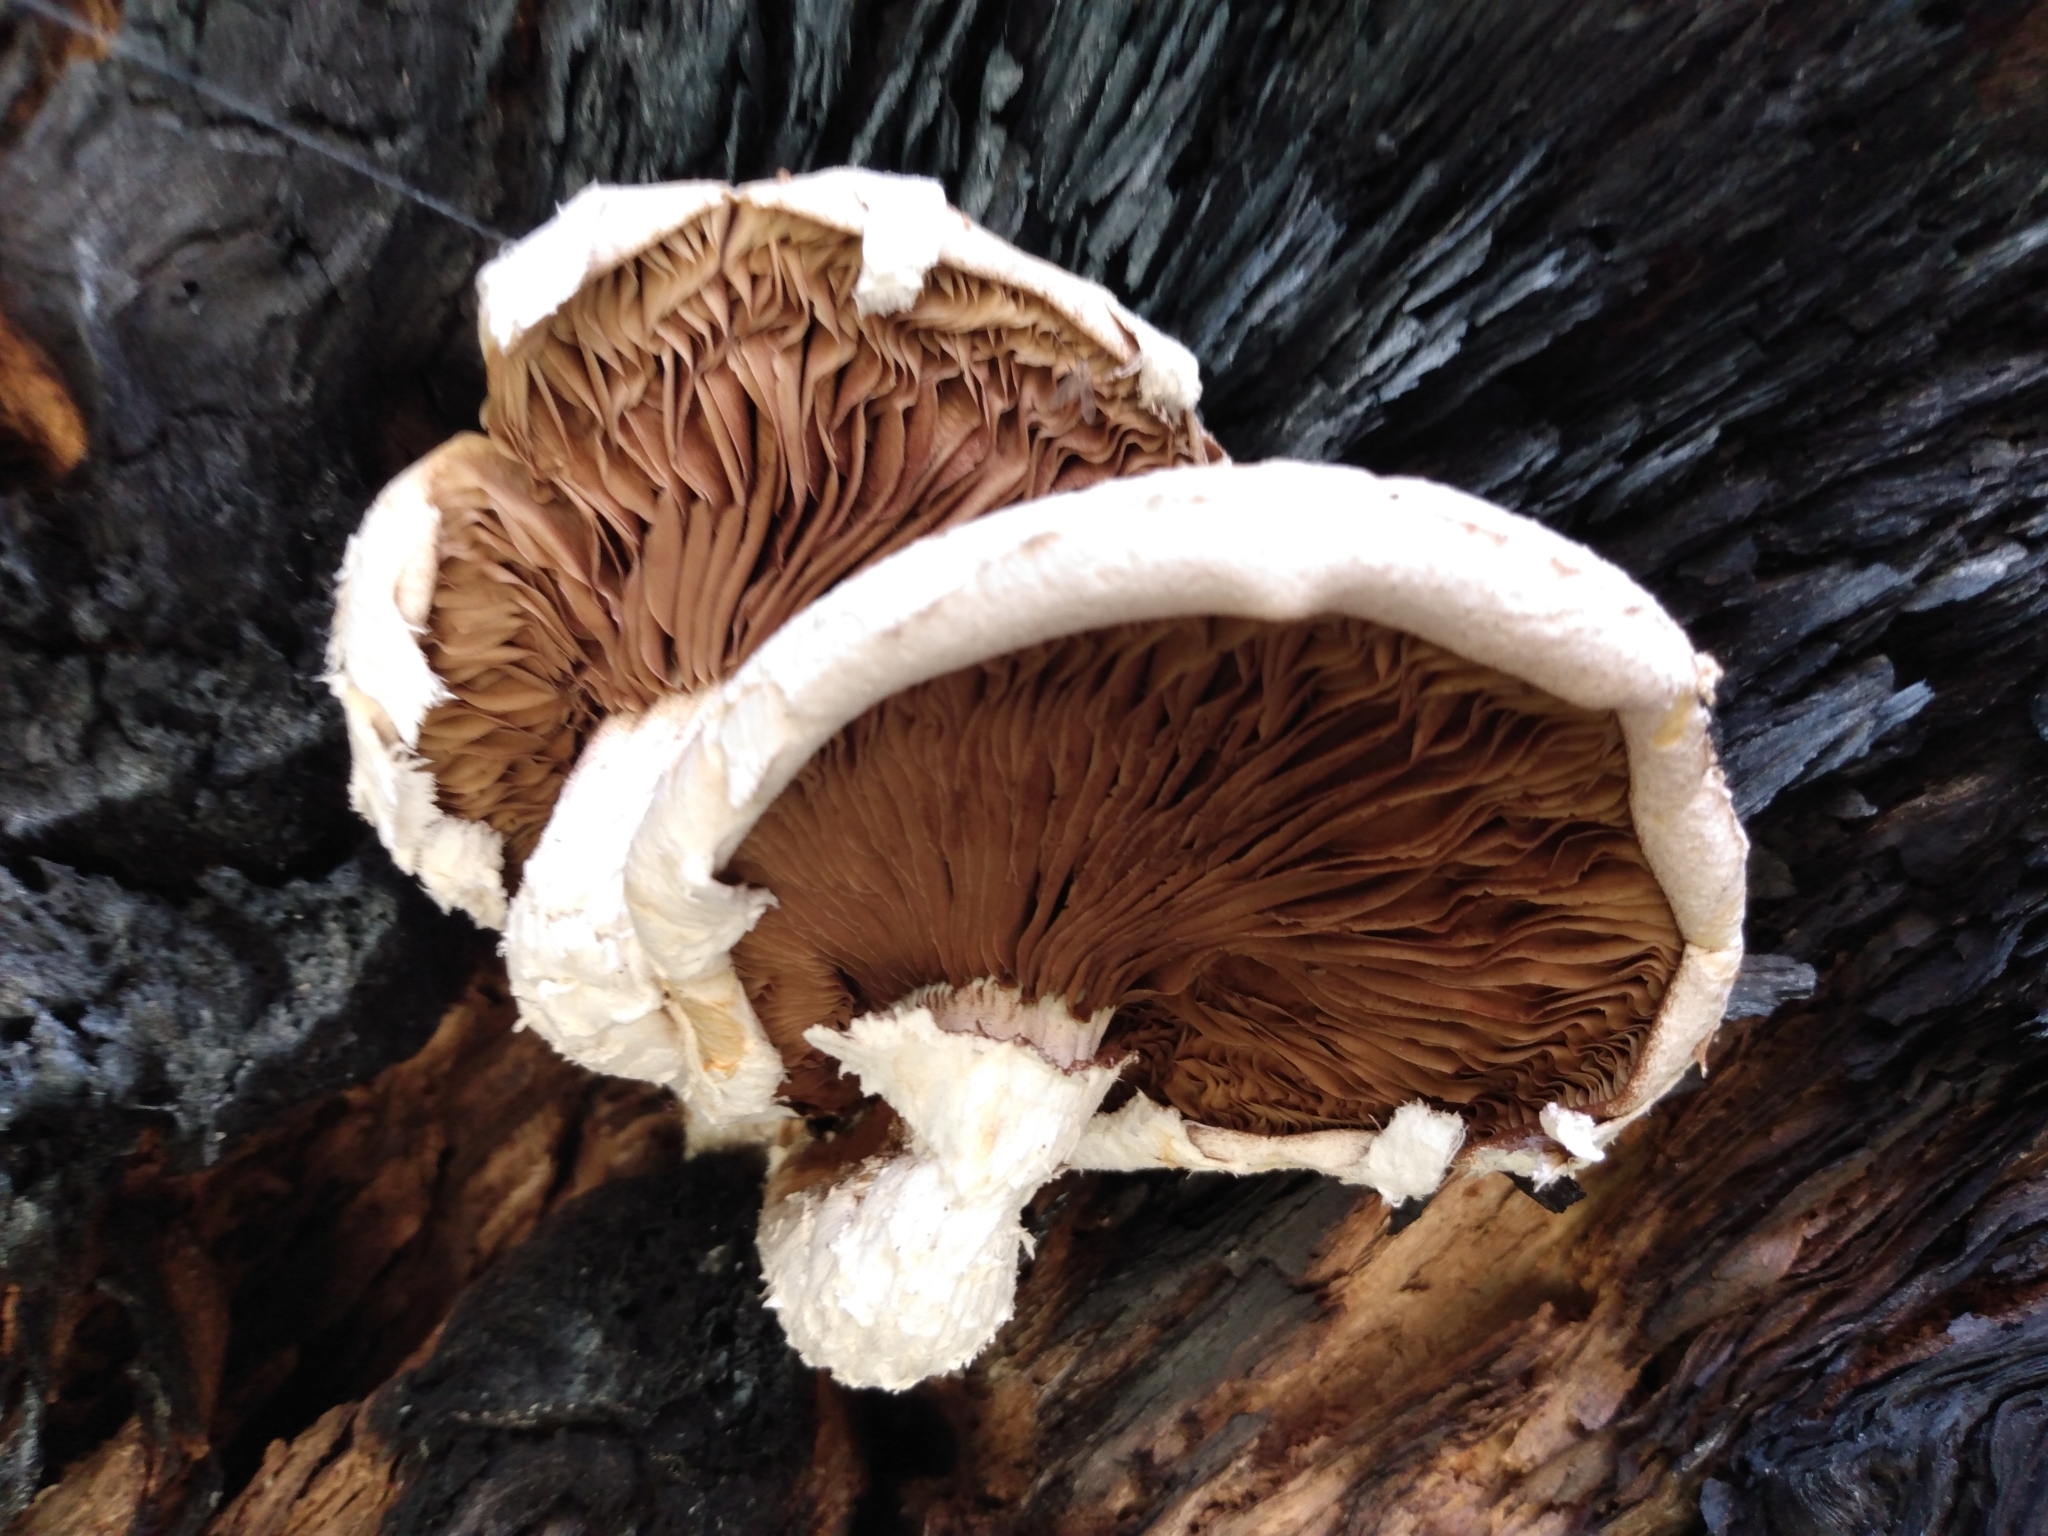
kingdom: Fungi
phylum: Basidiomycota
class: Agaricomycetes
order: Agaricales
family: Strophariaceae
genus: Pholiota
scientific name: Pholiota populnea
